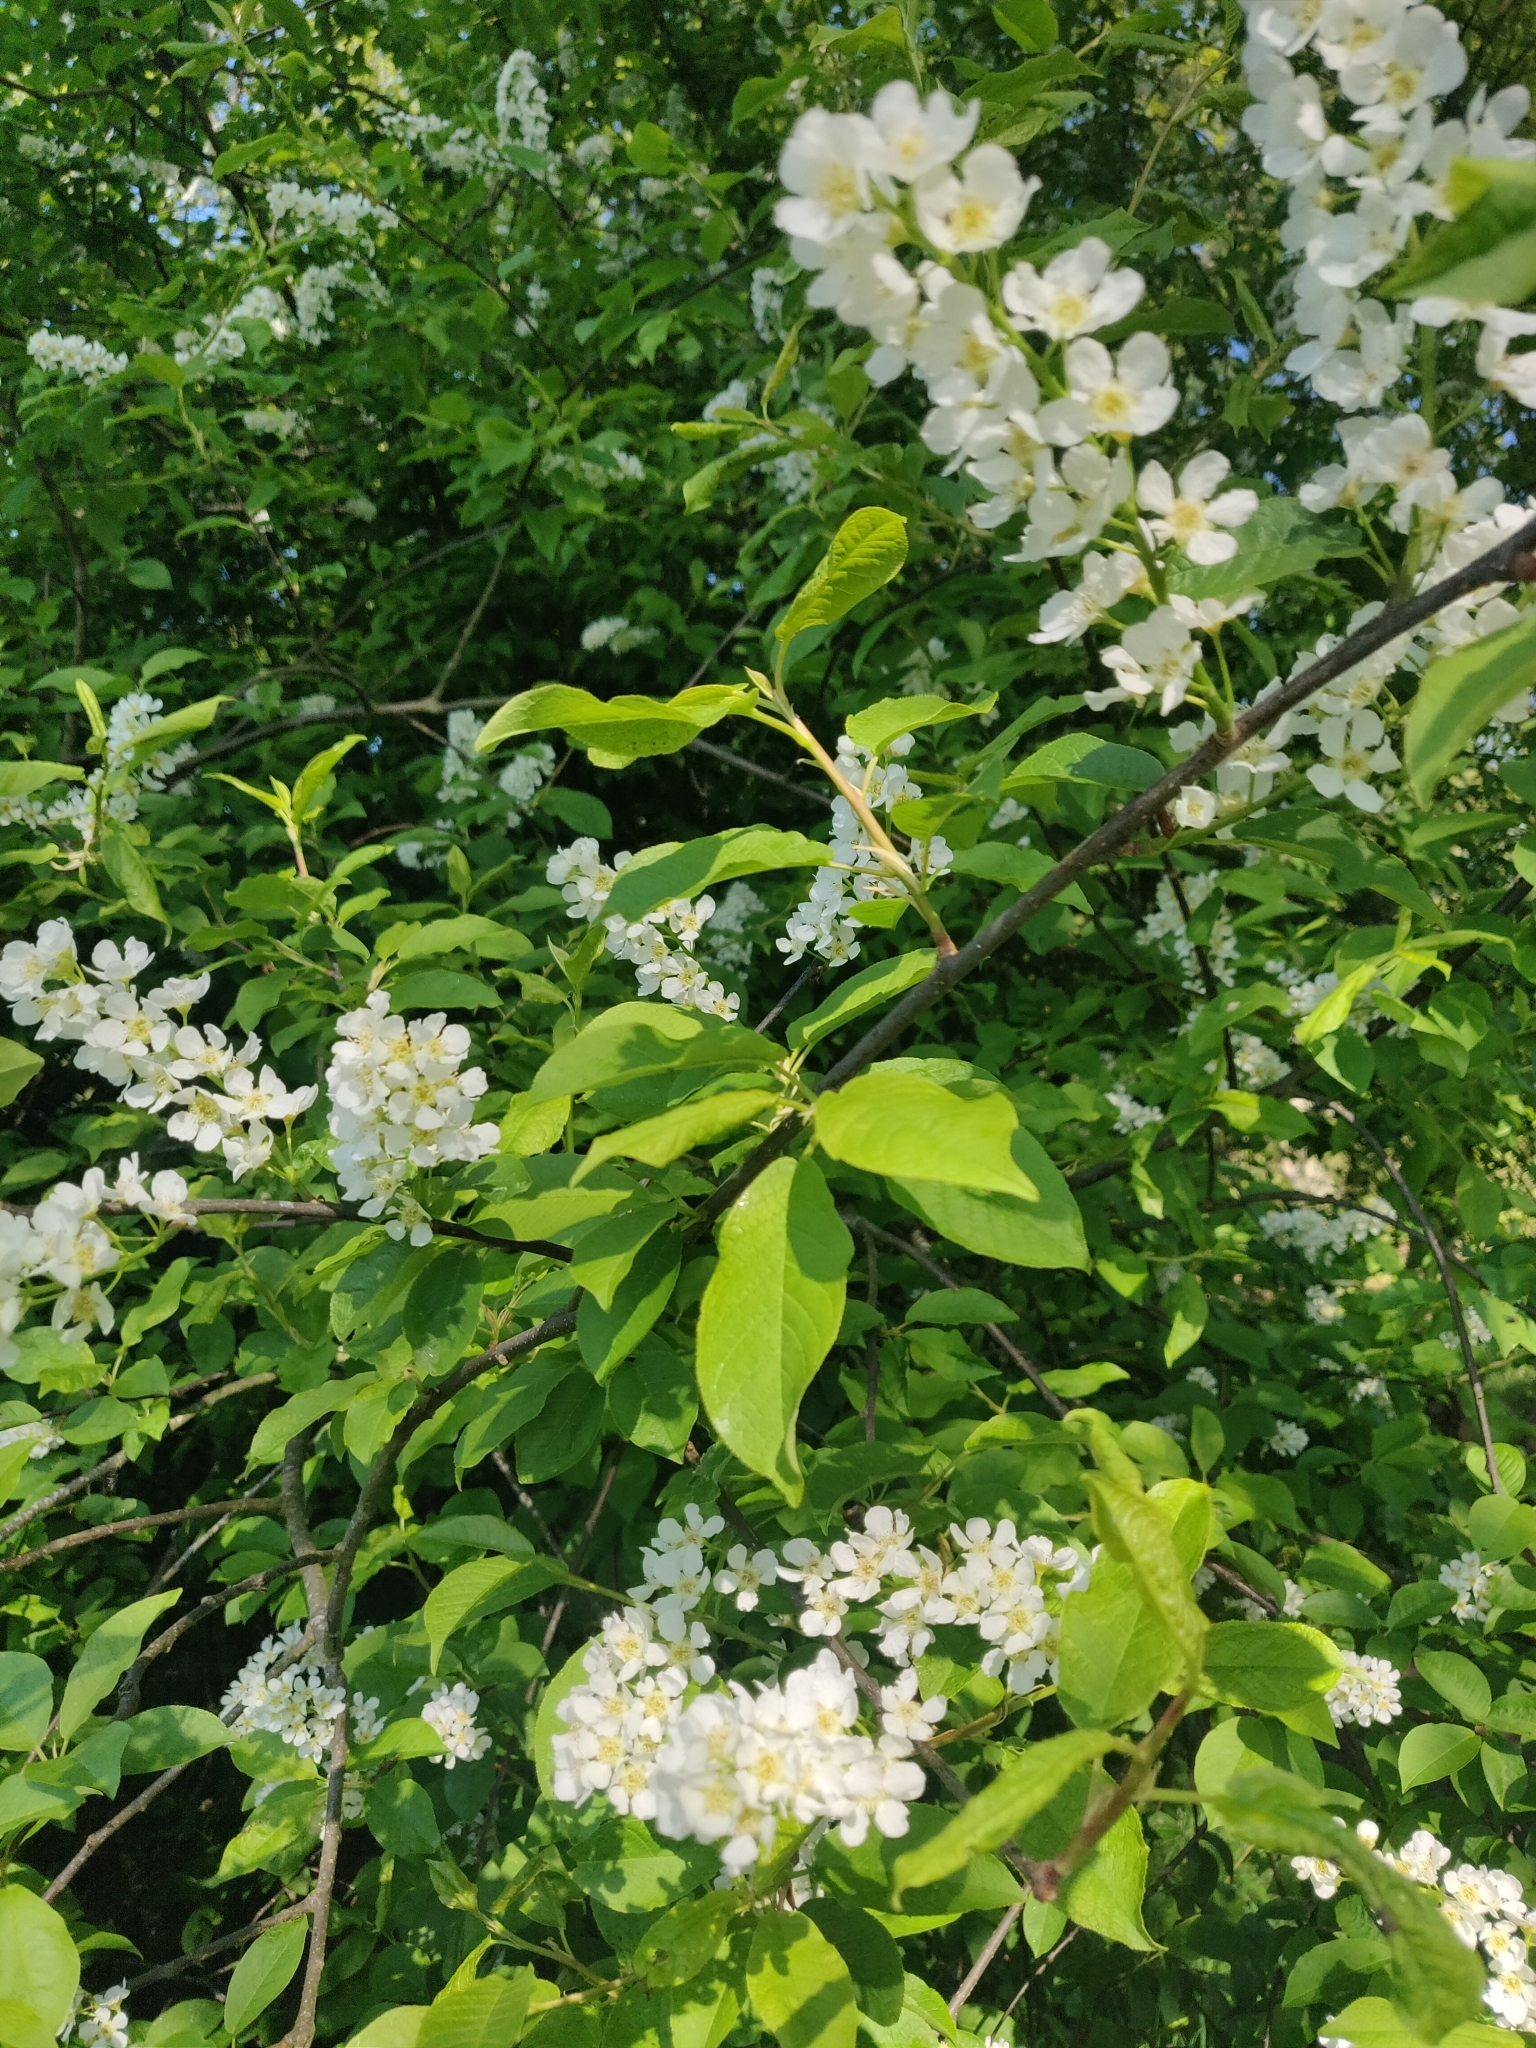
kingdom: Plantae
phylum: Tracheophyta
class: Magnoliopsida
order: Rosales
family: Rosaceae
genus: Prunus
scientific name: Prunus padus
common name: Bird cherry
